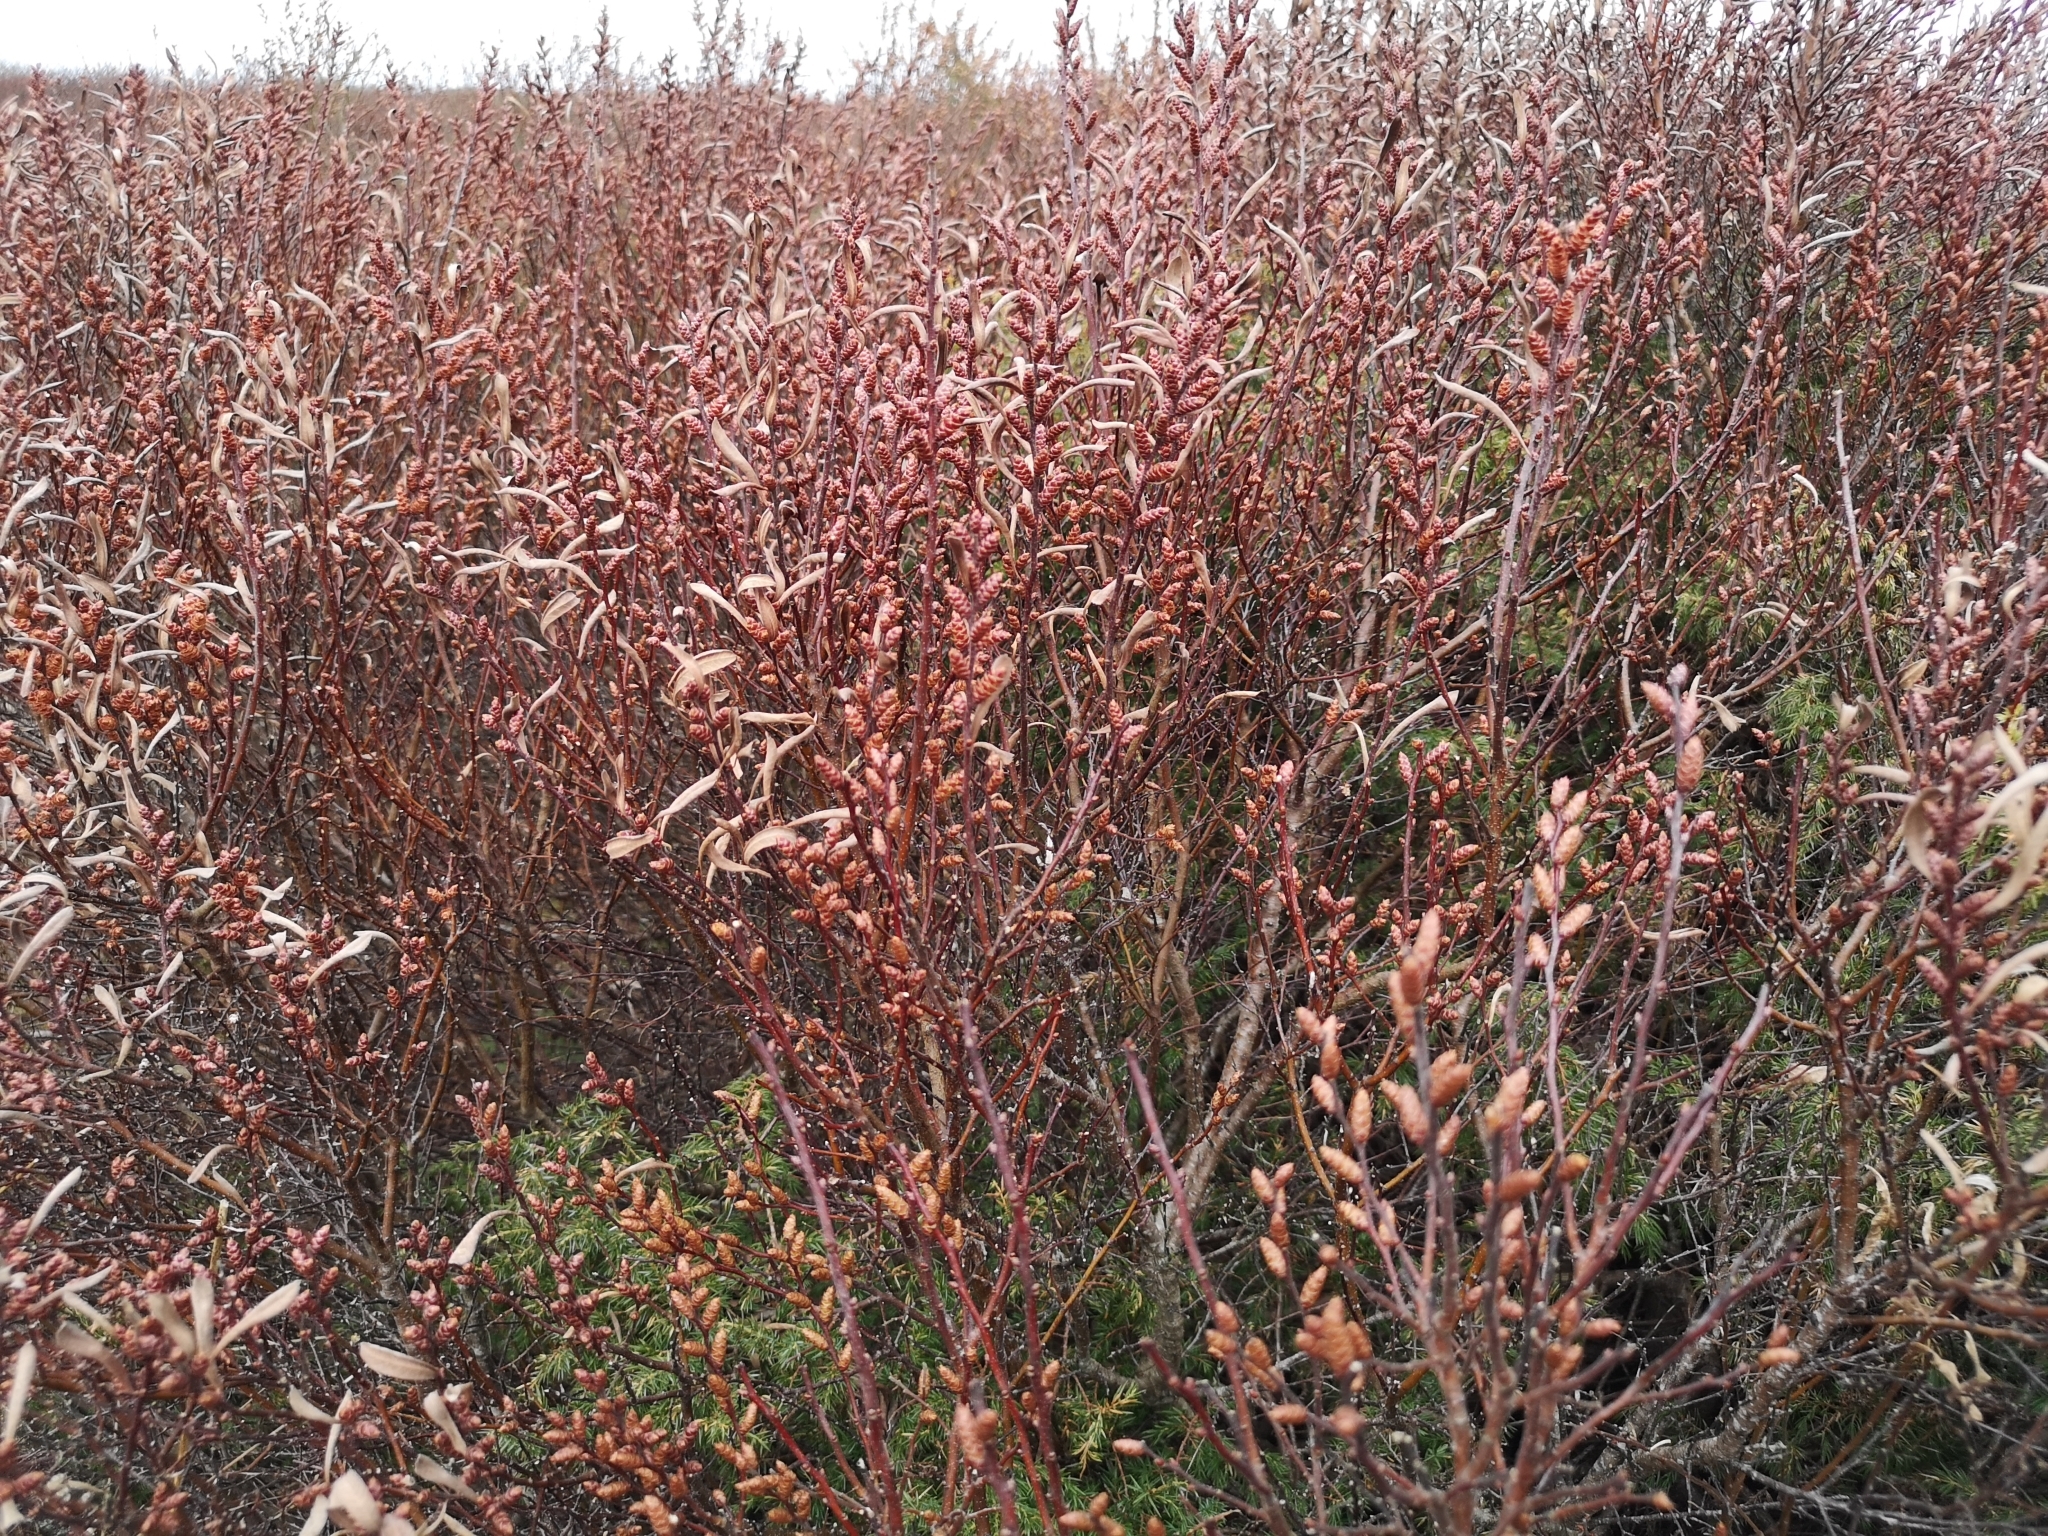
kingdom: Plantae
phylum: Tracheophyta
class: Magnoliopsida
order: Fagales
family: Myricaceae
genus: Myrica
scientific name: Myrica gale
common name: Sweet gale
